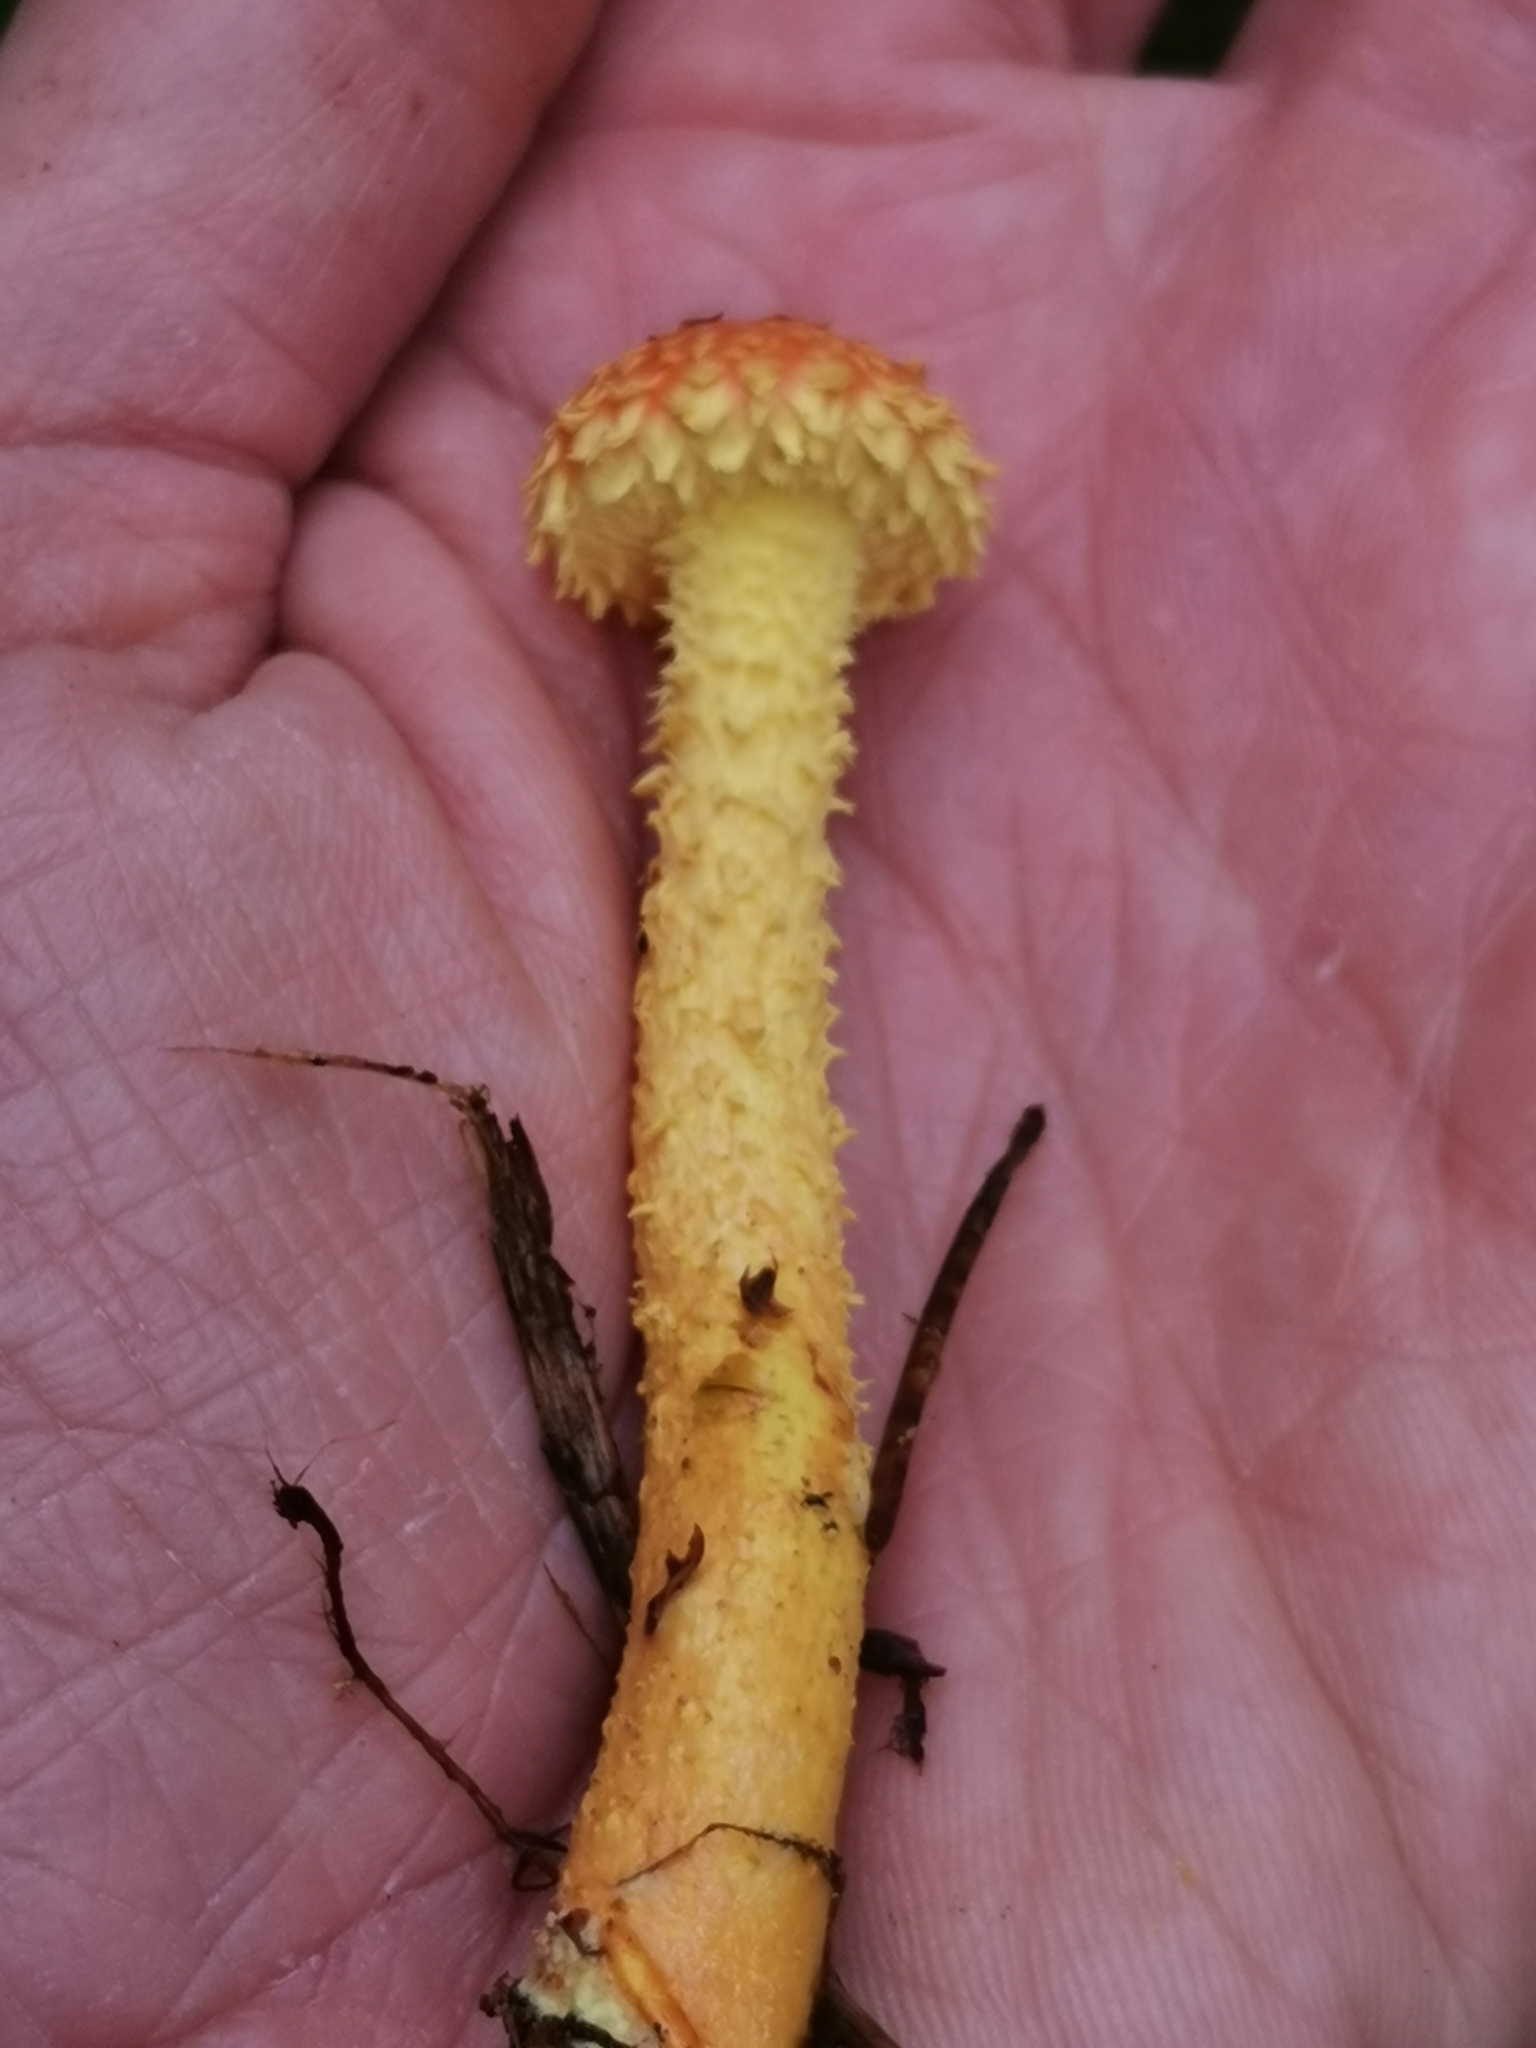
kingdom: Fungi
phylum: Basidiomycota
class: Agaricomycetes
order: Agaricales
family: Strophariaceae
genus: Pholiota
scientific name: Pholiota flammans
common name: Flaming scalycap
